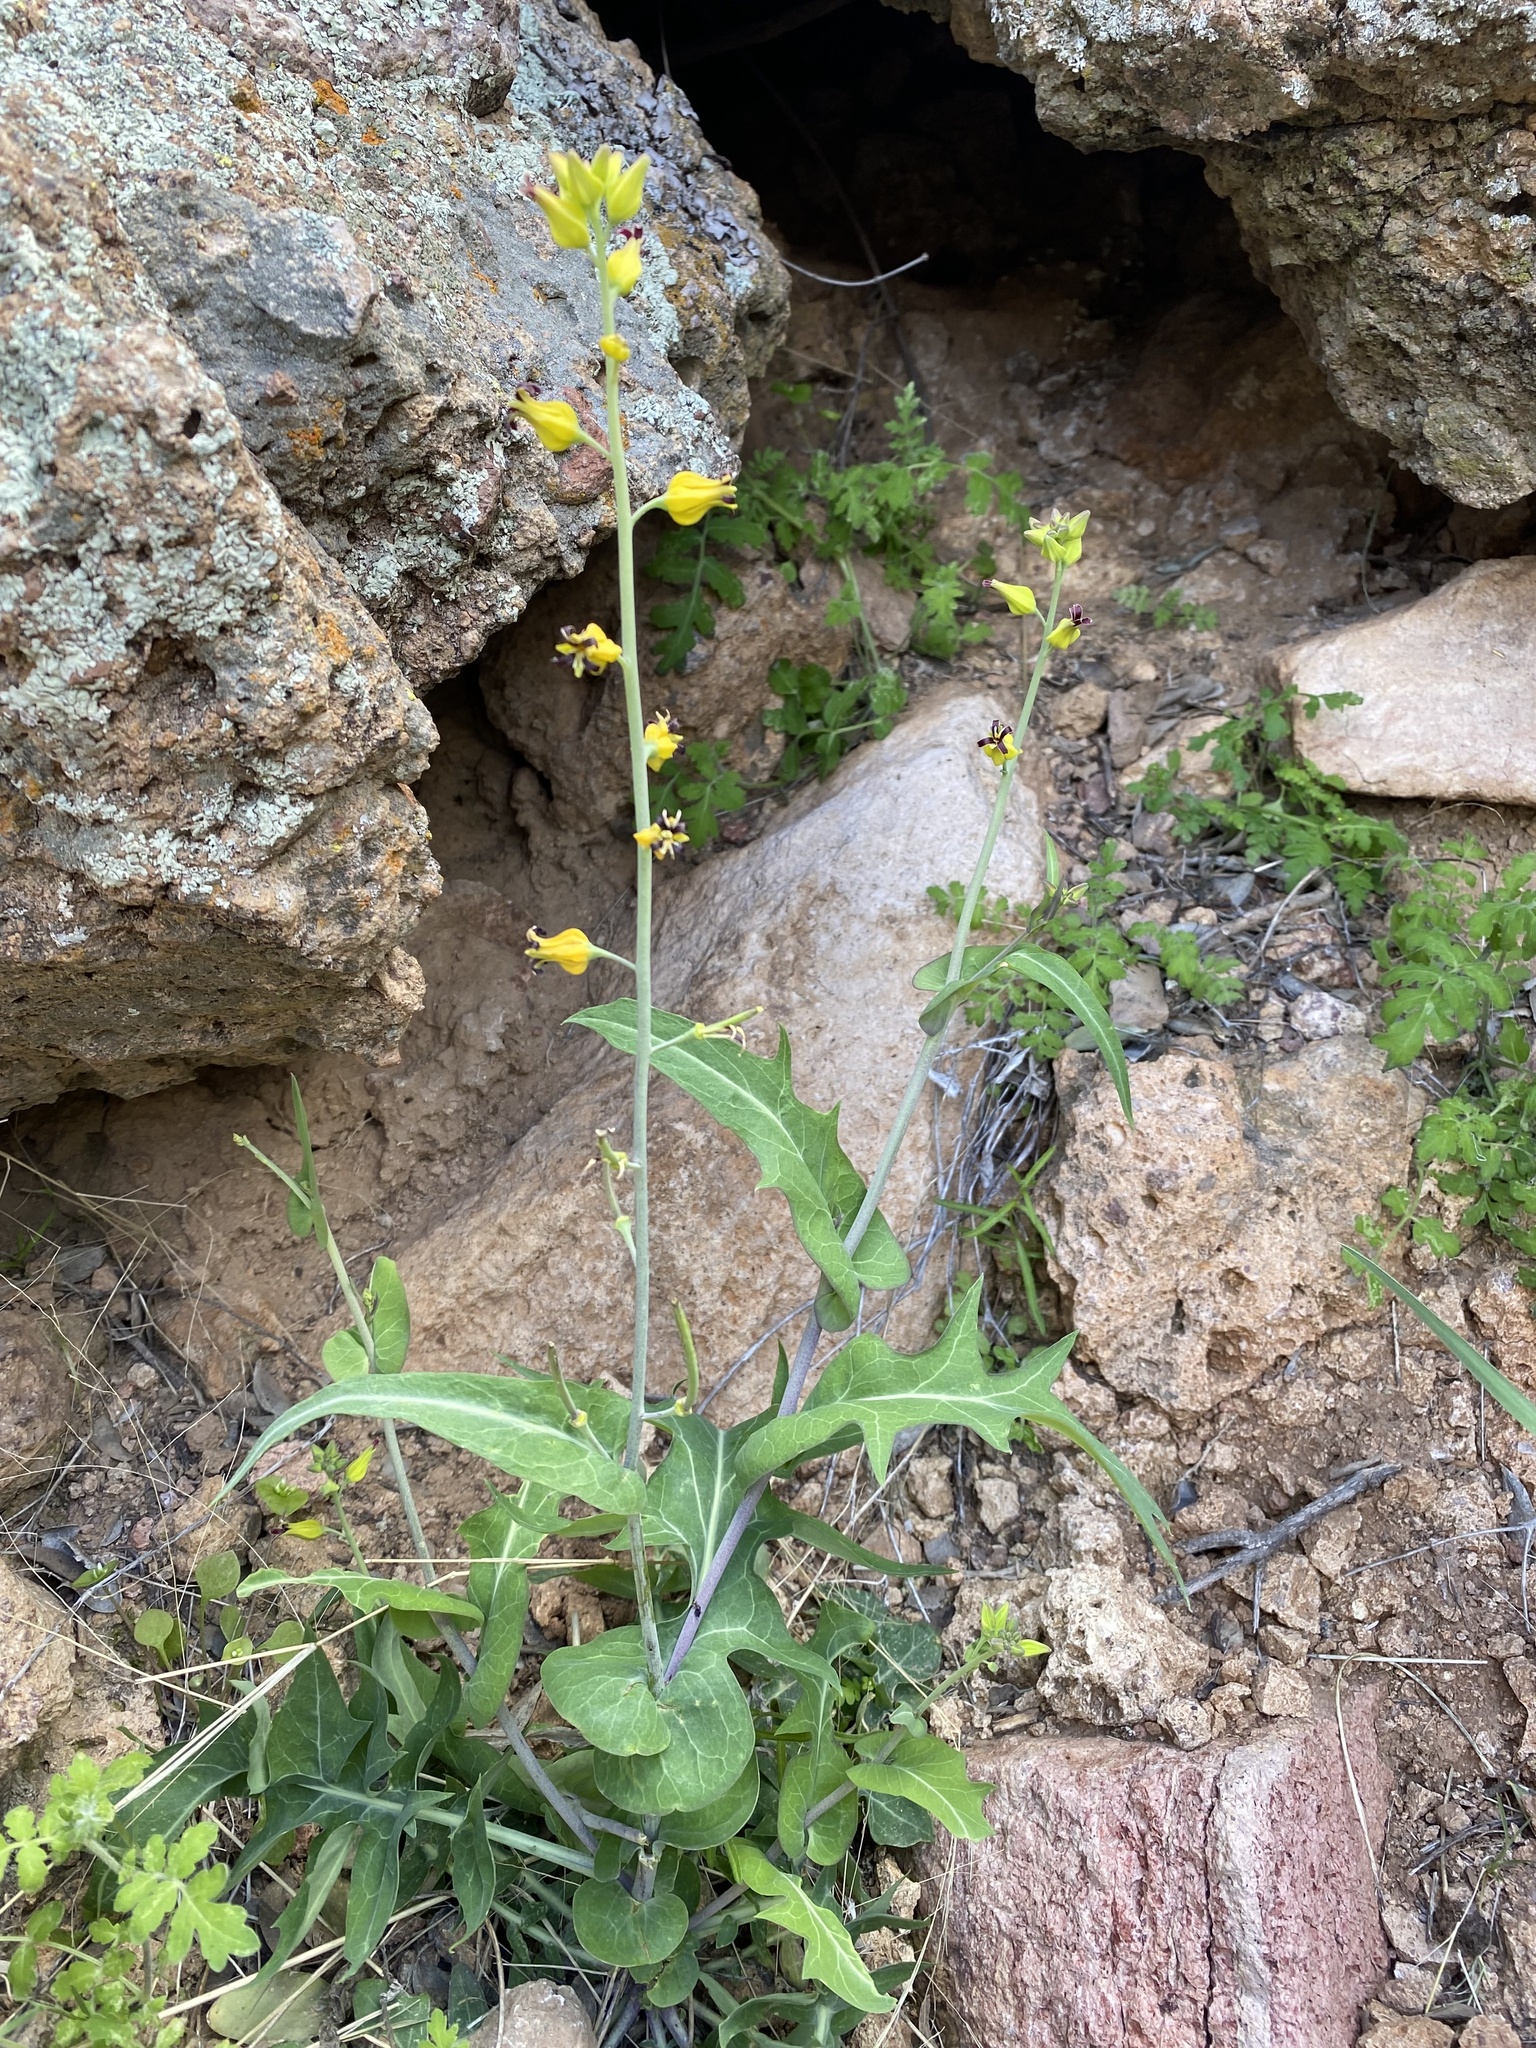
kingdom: Plantae
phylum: Tracheophyta
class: Magnoliopsida
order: Brassicales
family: Brassicaceae
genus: Streptanthus
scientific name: Streptanthus carinatus
